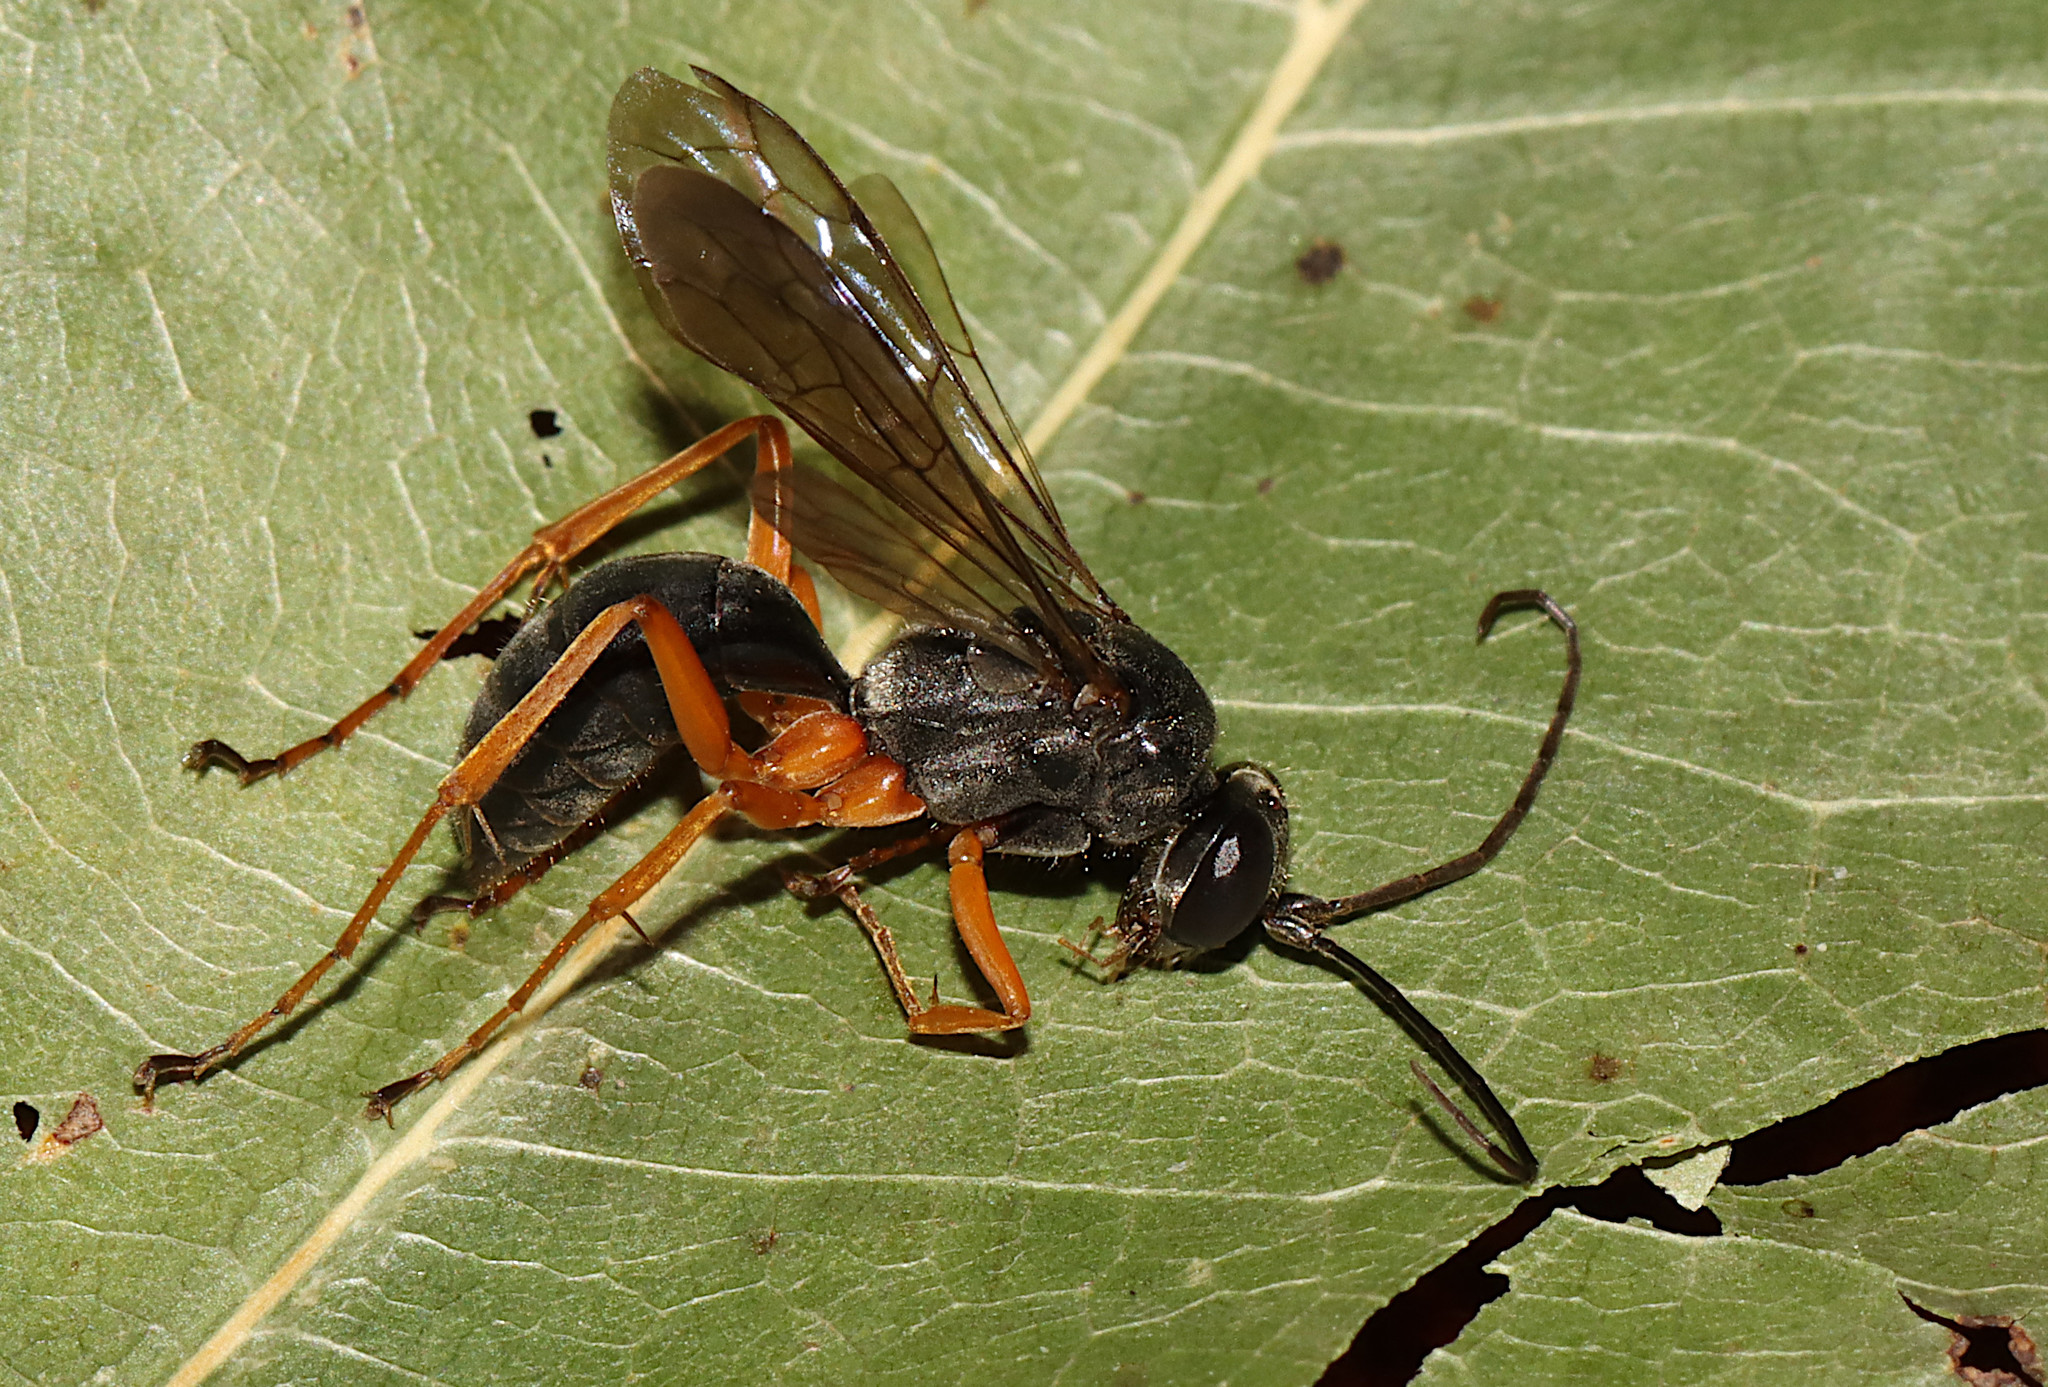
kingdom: Animalia
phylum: Arthropoda
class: Insecta
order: Hymenoptera
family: Pompilidae
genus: Auplopus
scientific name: Auplopus mellipes
